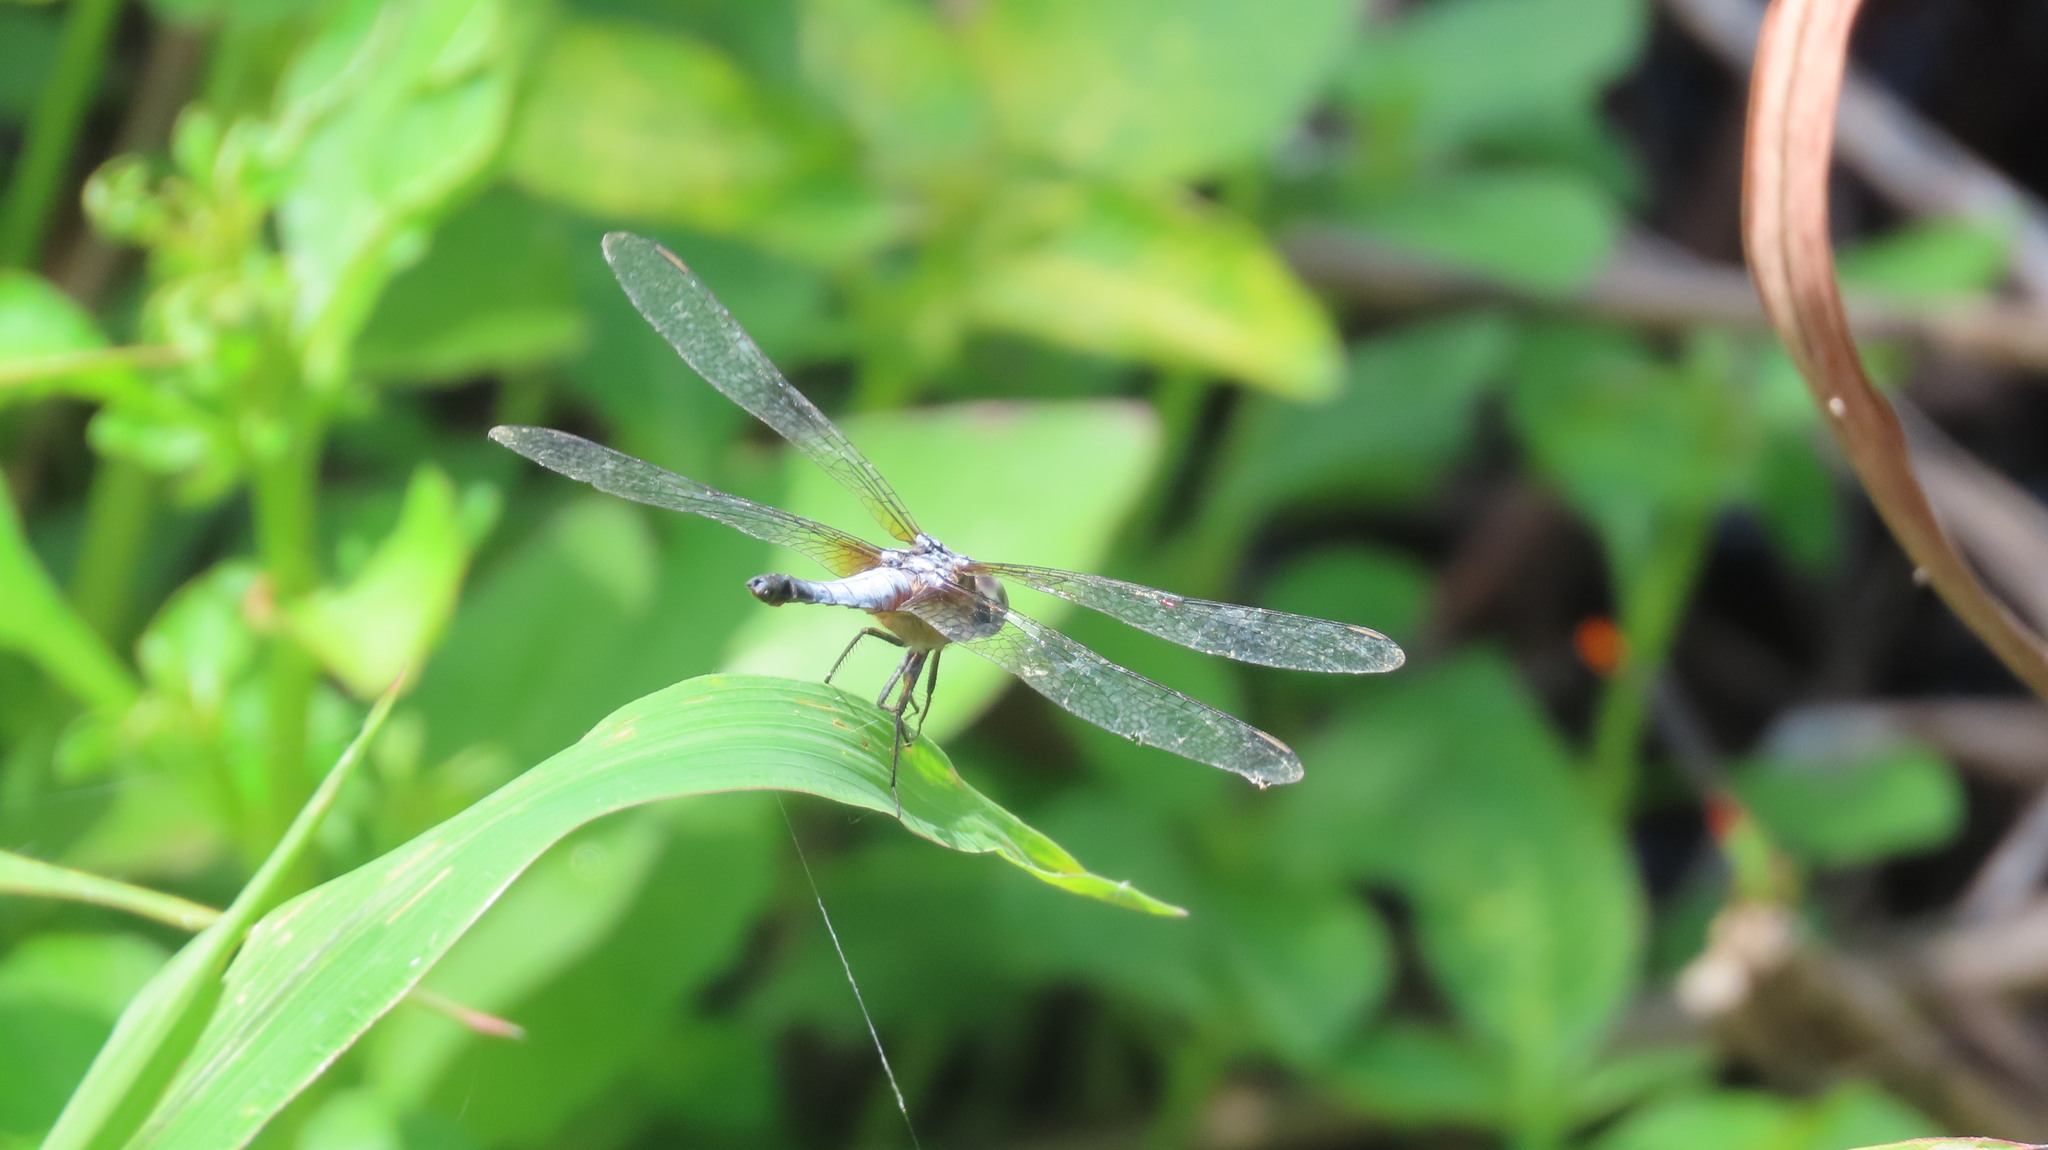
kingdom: Animalia
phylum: Arthropoda
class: Insecta
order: Odonata
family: Libellulidae
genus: Brachydiplax
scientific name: Brachydiplax chalybea
